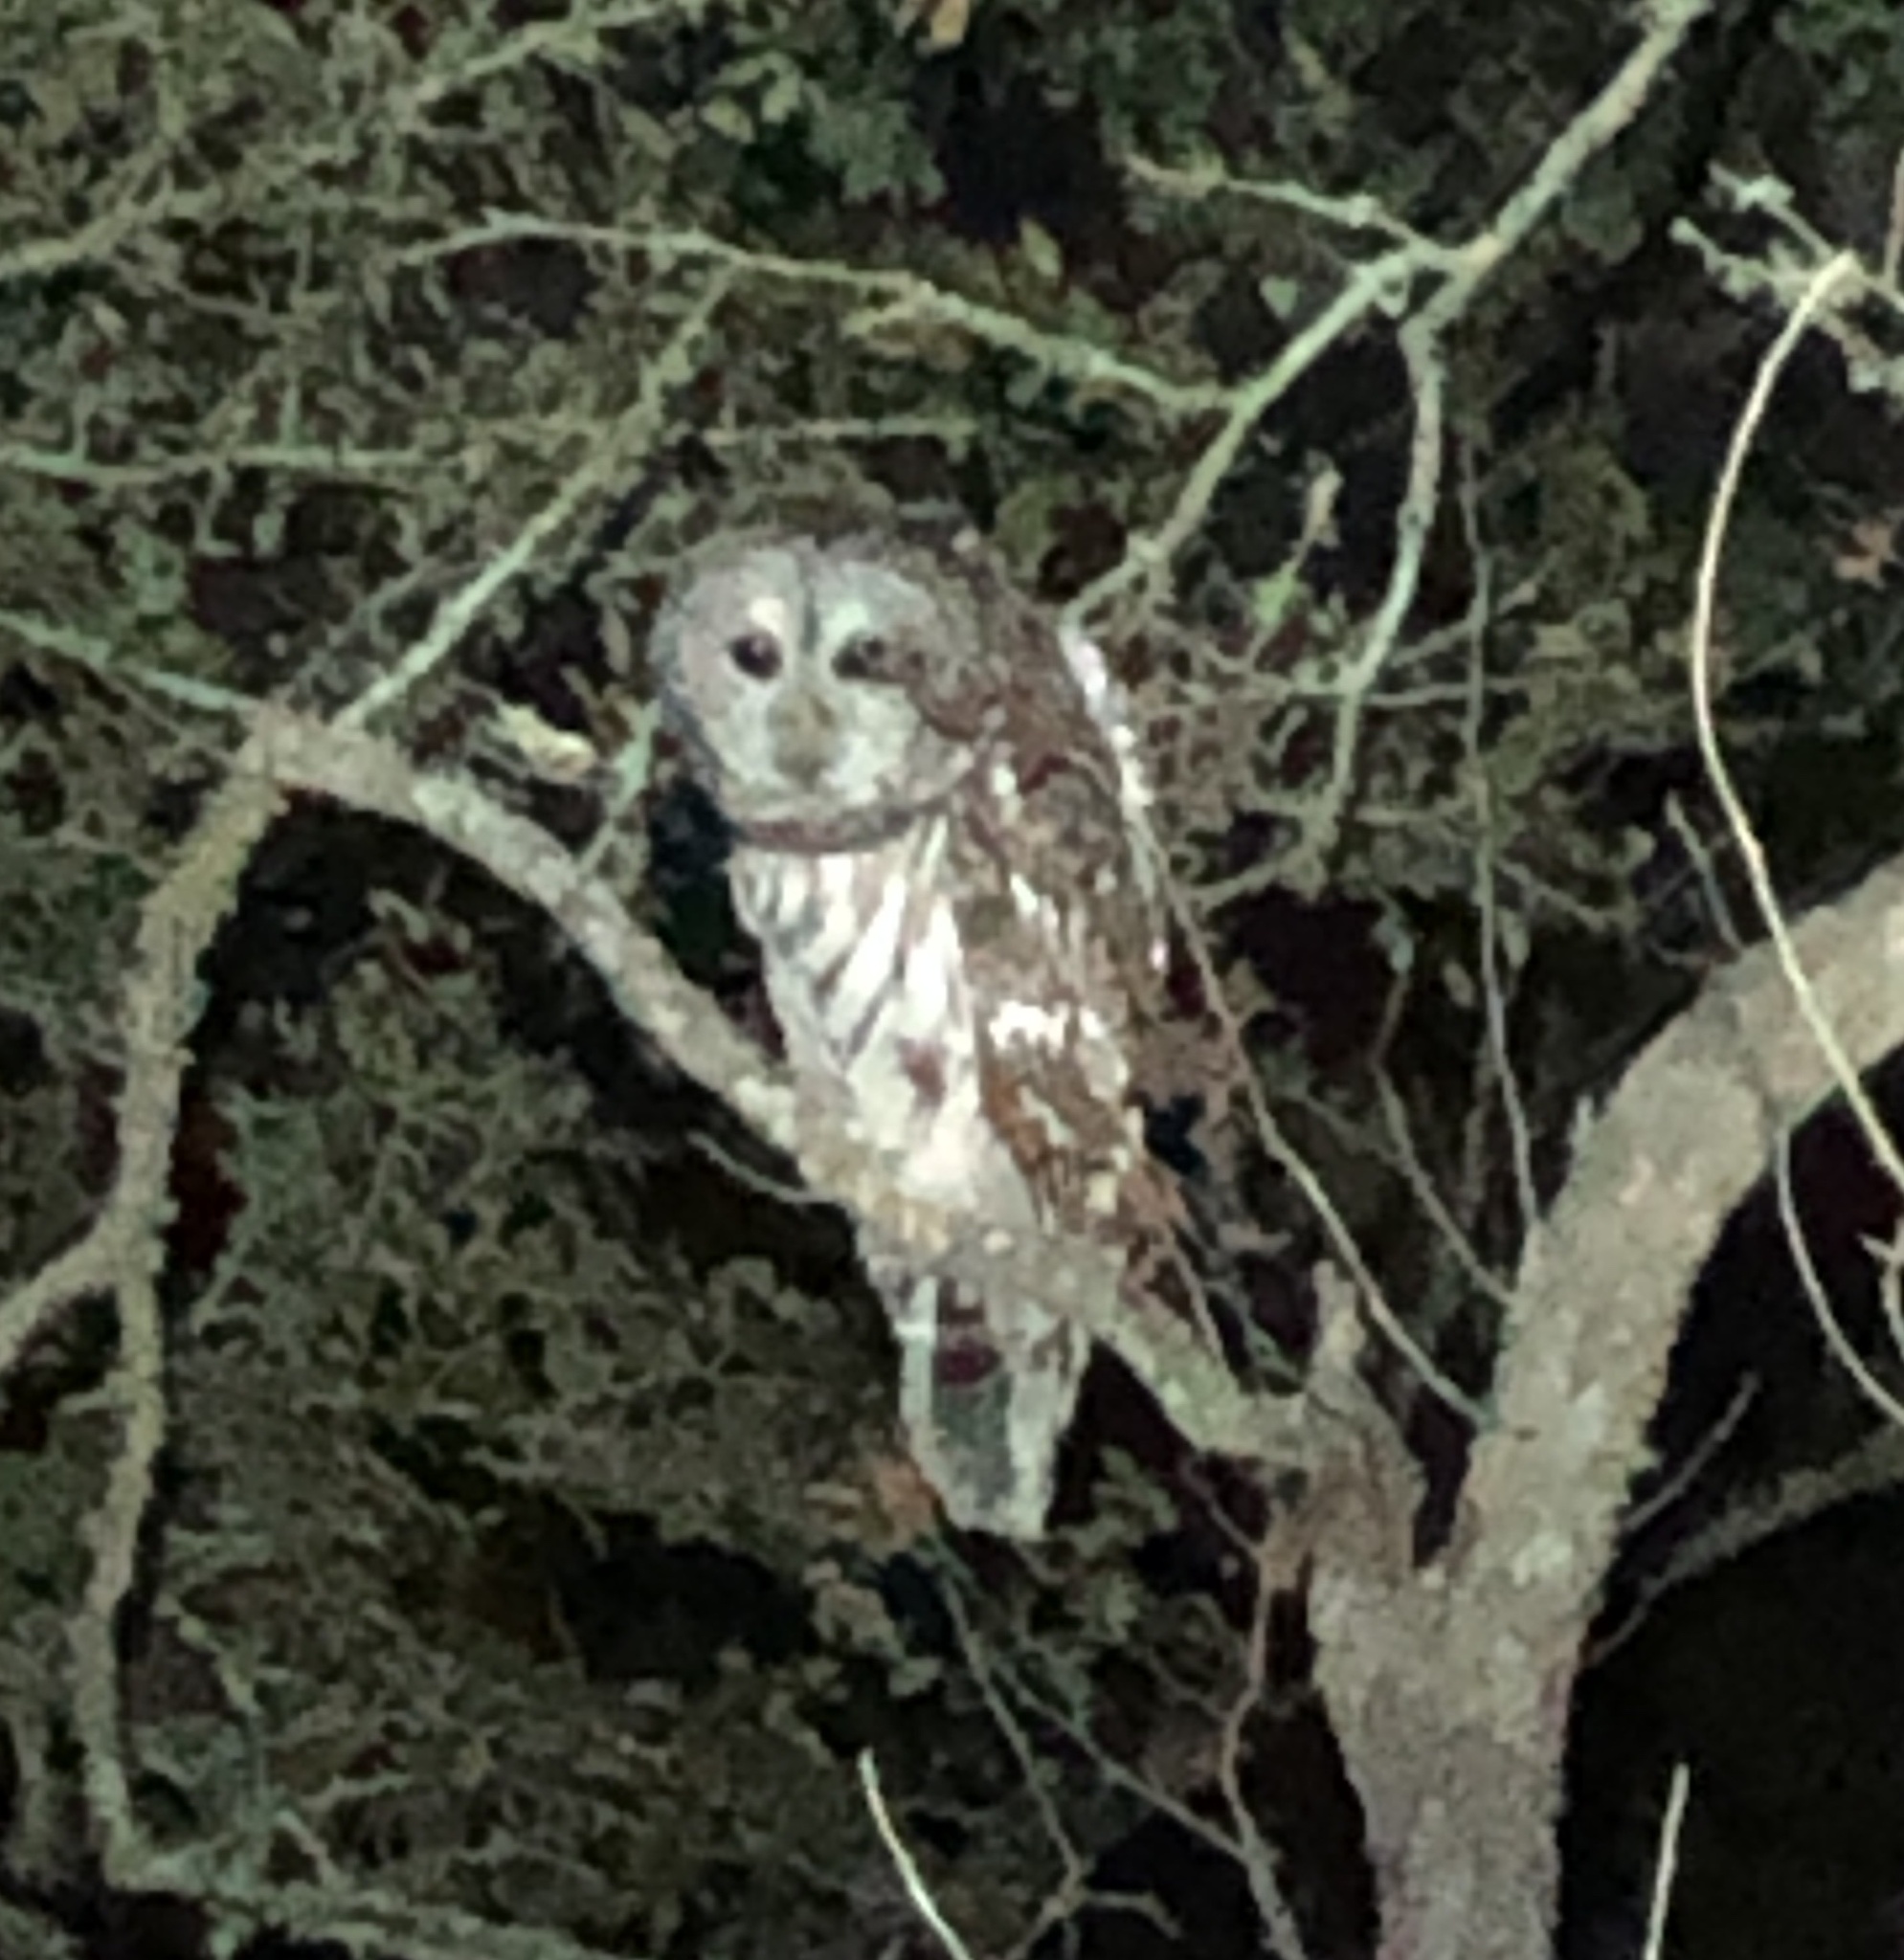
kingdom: Animalia
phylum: Chordata
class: Aves
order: Strigiformes
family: Strigidae
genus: Strix
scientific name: Strix varia
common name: Barred owl
